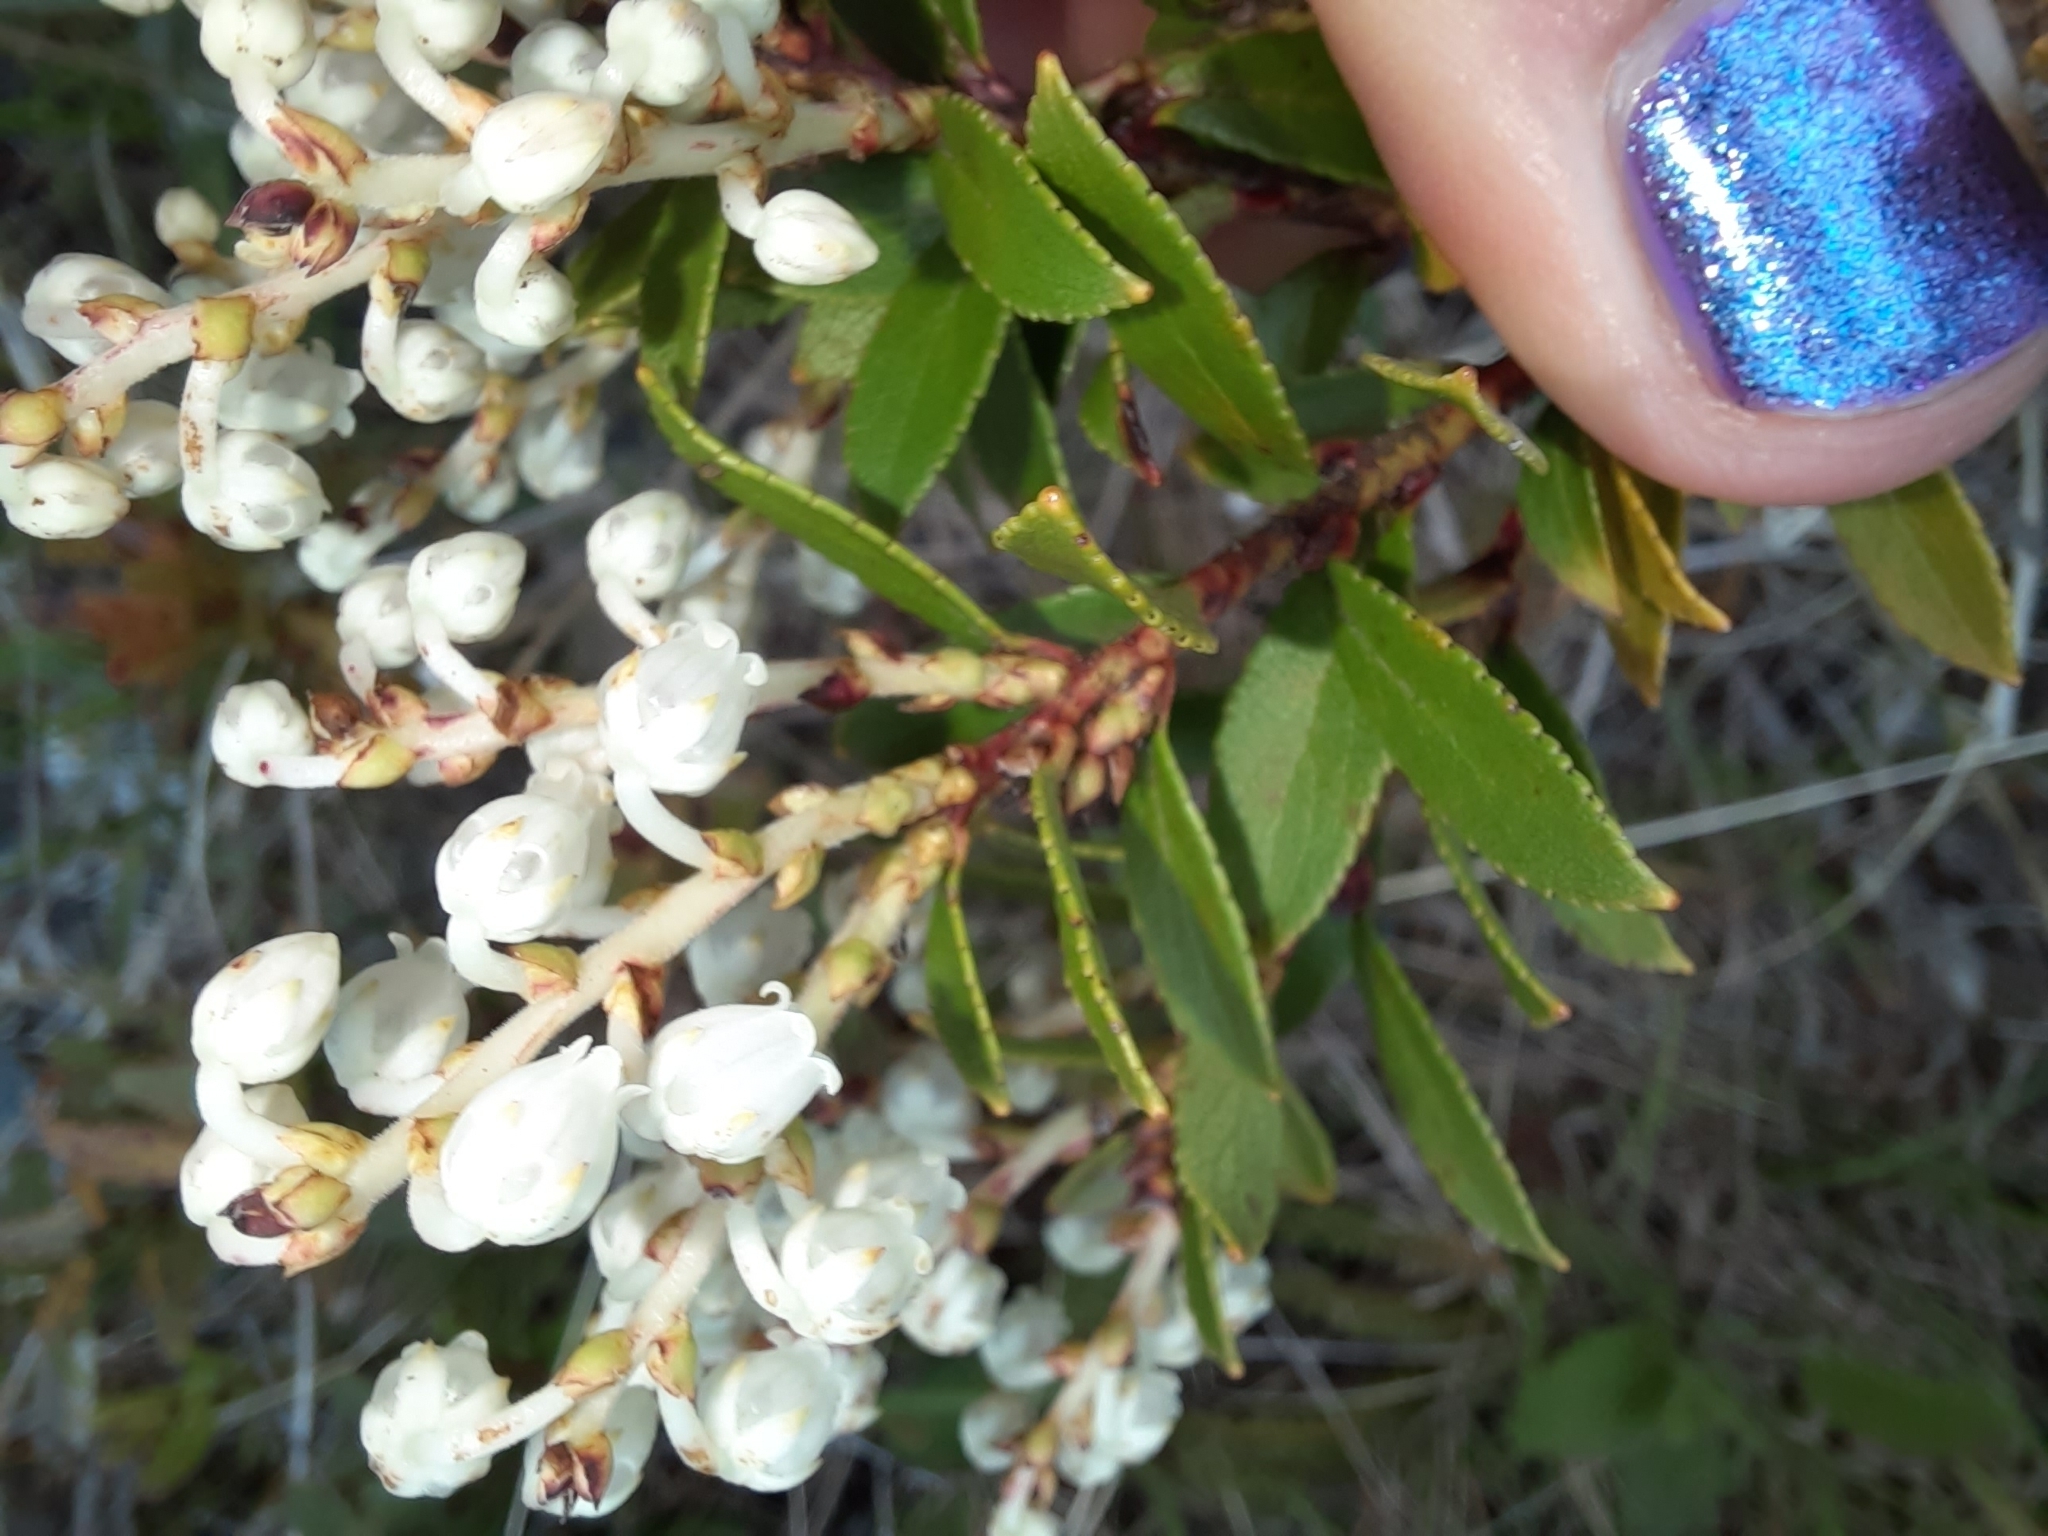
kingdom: Plantae
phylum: Tracheophyta
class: Magnoliopsida
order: Ericales
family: Ericaceae
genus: Gaultheria
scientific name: Gaultheria rupestris
